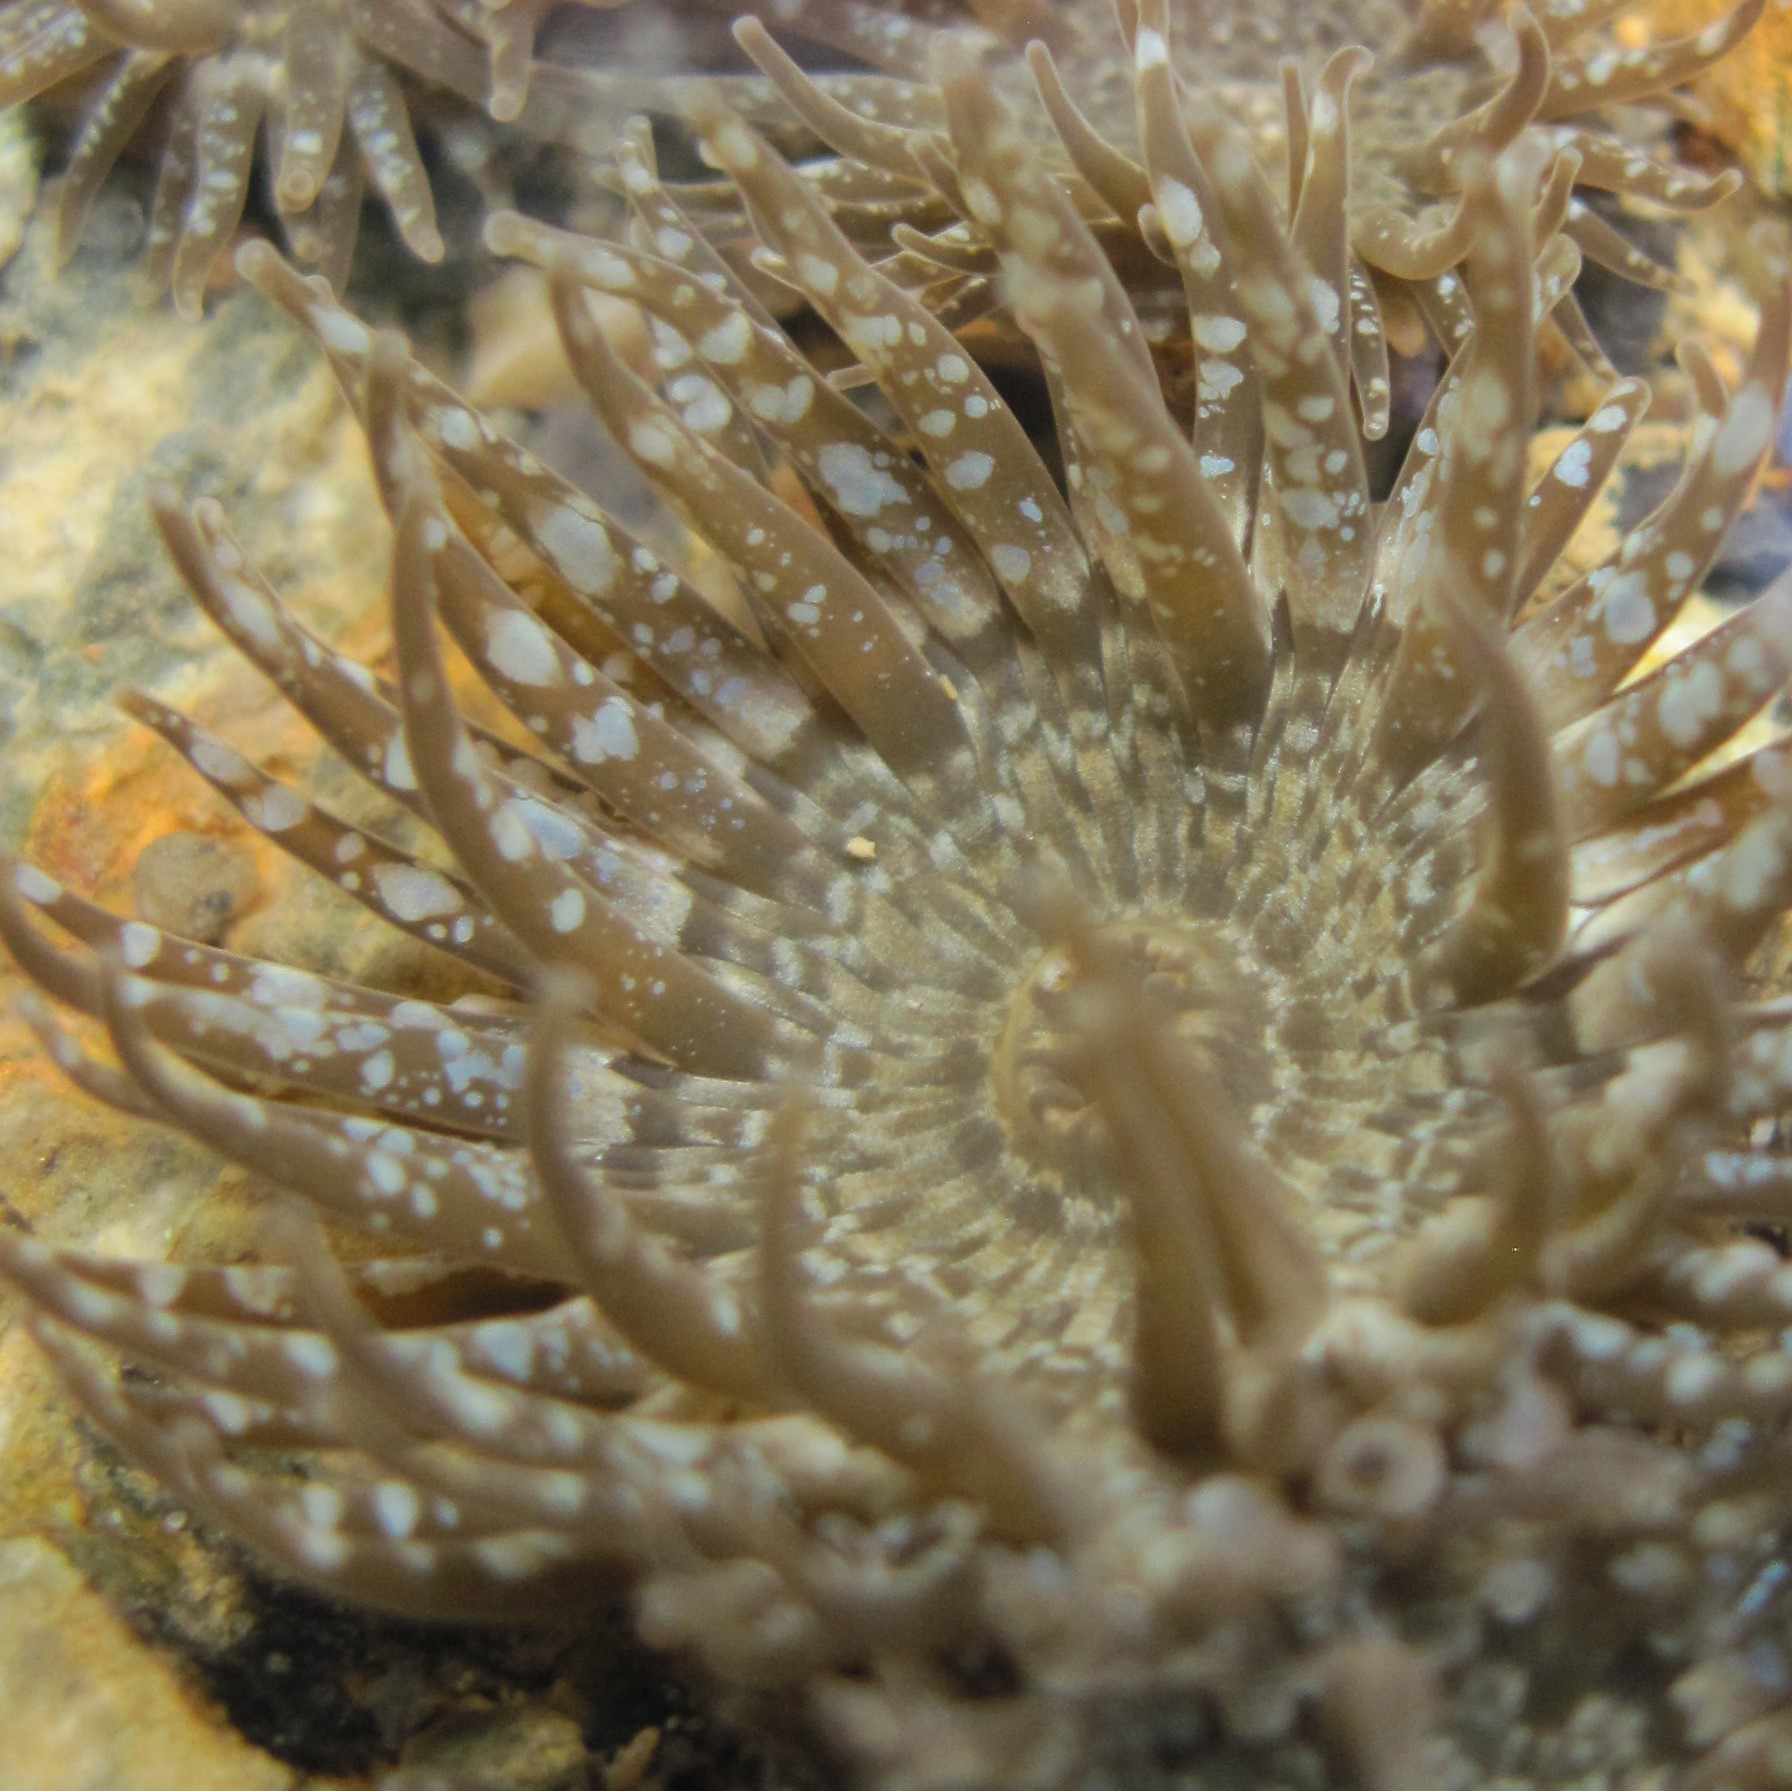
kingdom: Animalia
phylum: Cnidaria
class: Anthozoa
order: Actiniaria
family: Actiniidae
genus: Anthopleura
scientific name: Anthopleura hermaphroditica
